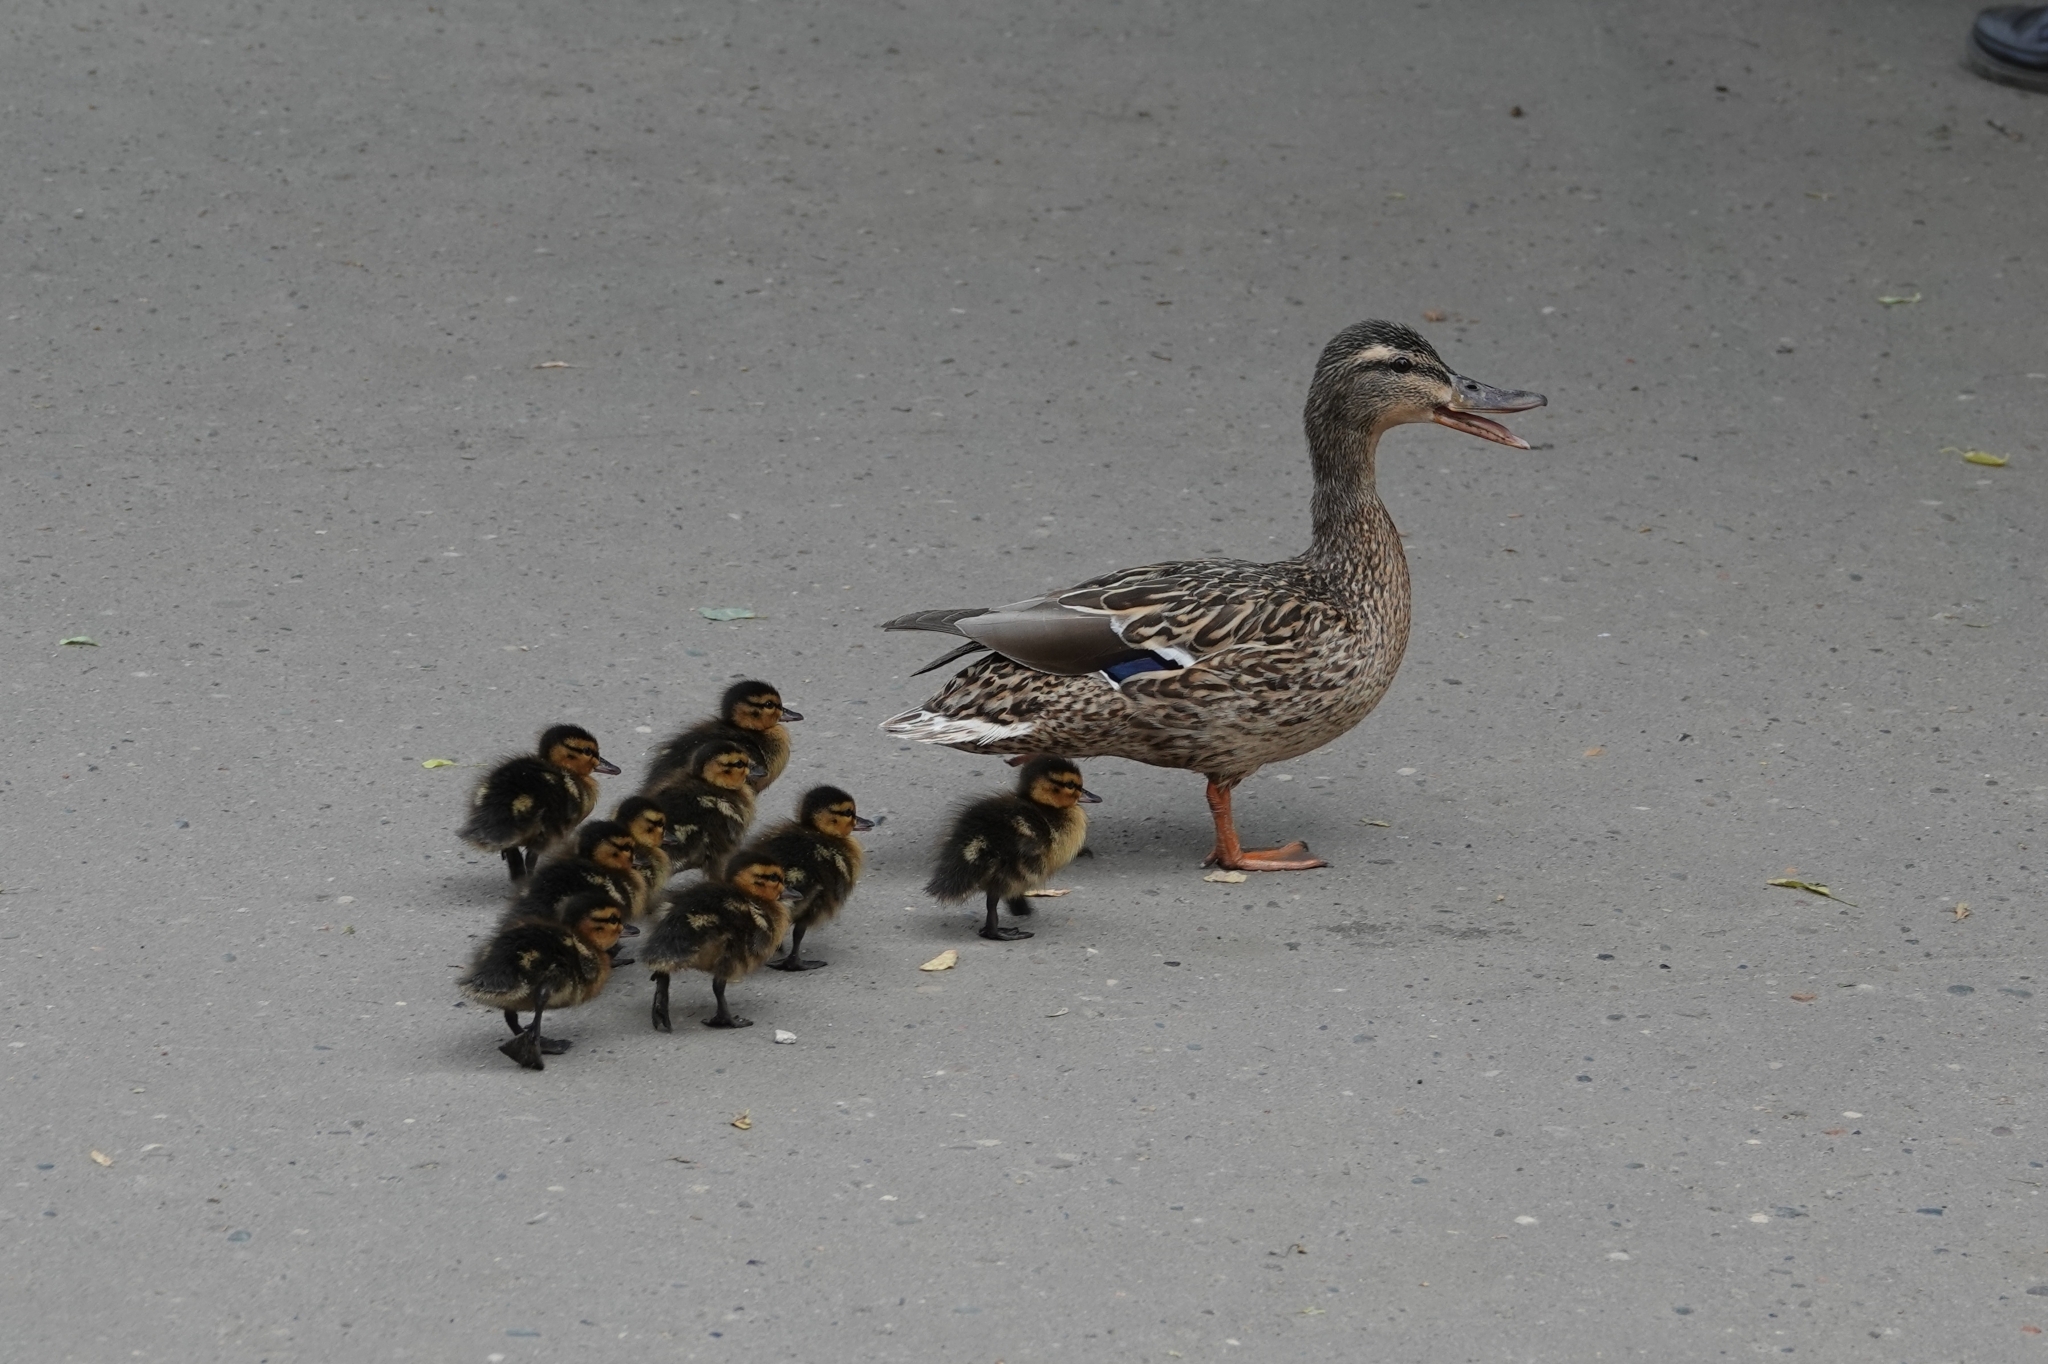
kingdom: Animalia
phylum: Chordata
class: Aves
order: Anseriformes
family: Anatidae
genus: Anas
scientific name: Anas platyrhynchos
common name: Mallard
